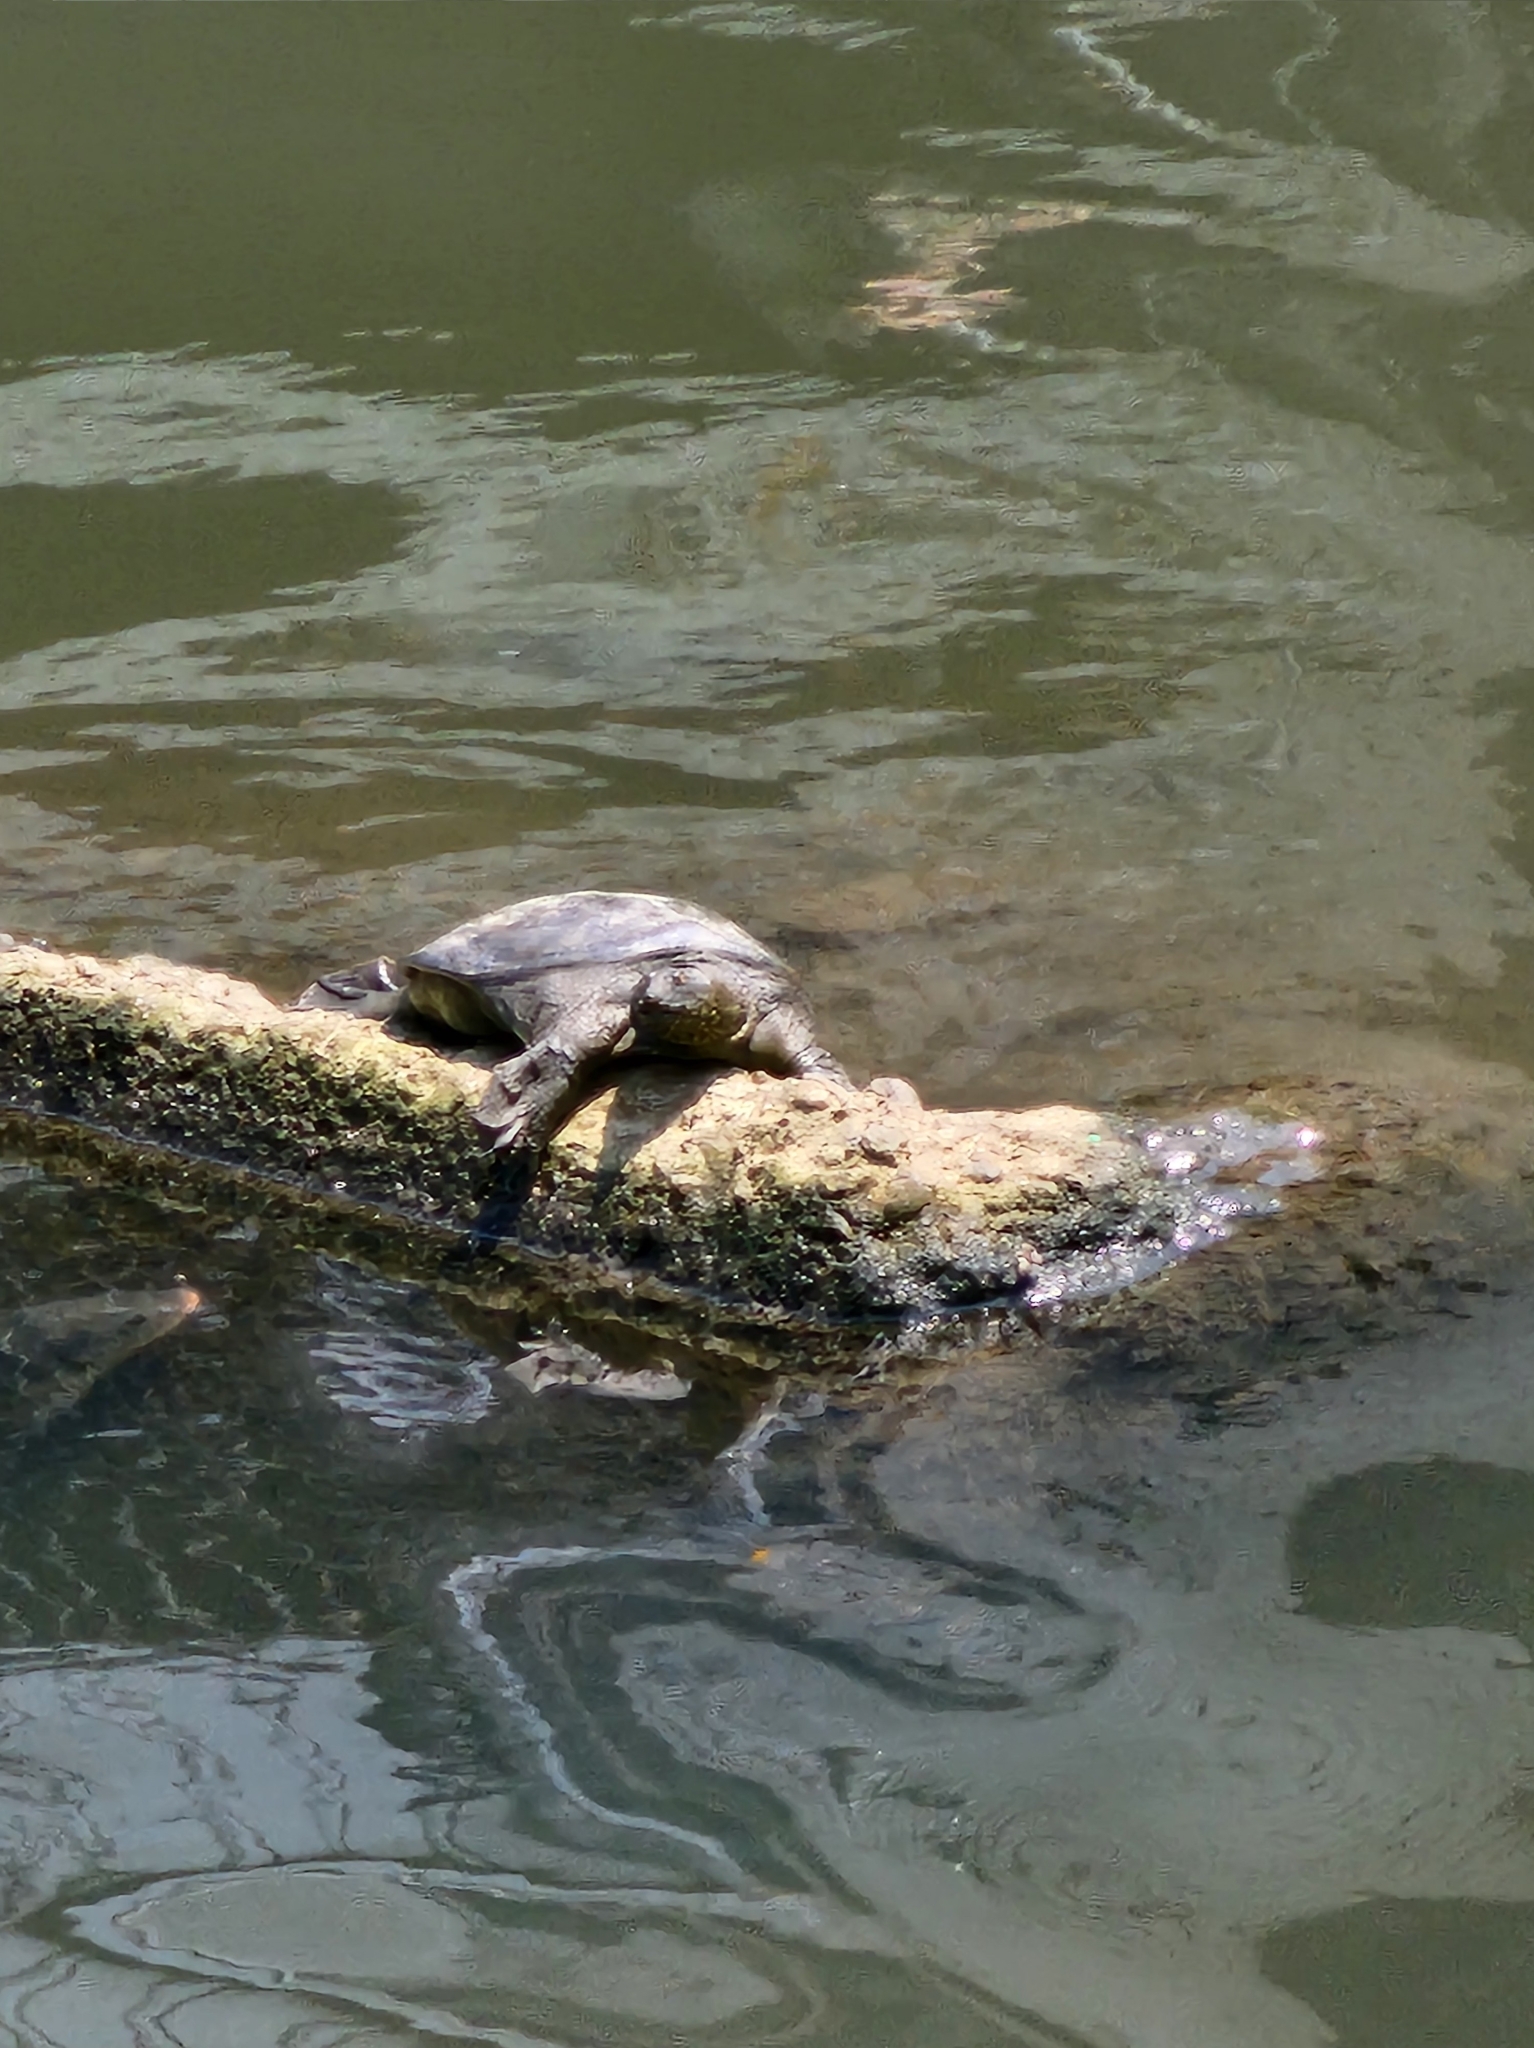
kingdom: Animalia
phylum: Chordata
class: Testudines
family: Trionychidae
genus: Pelodiscus
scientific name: Pelodiscus sinensis
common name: Chinese softshell turtle
